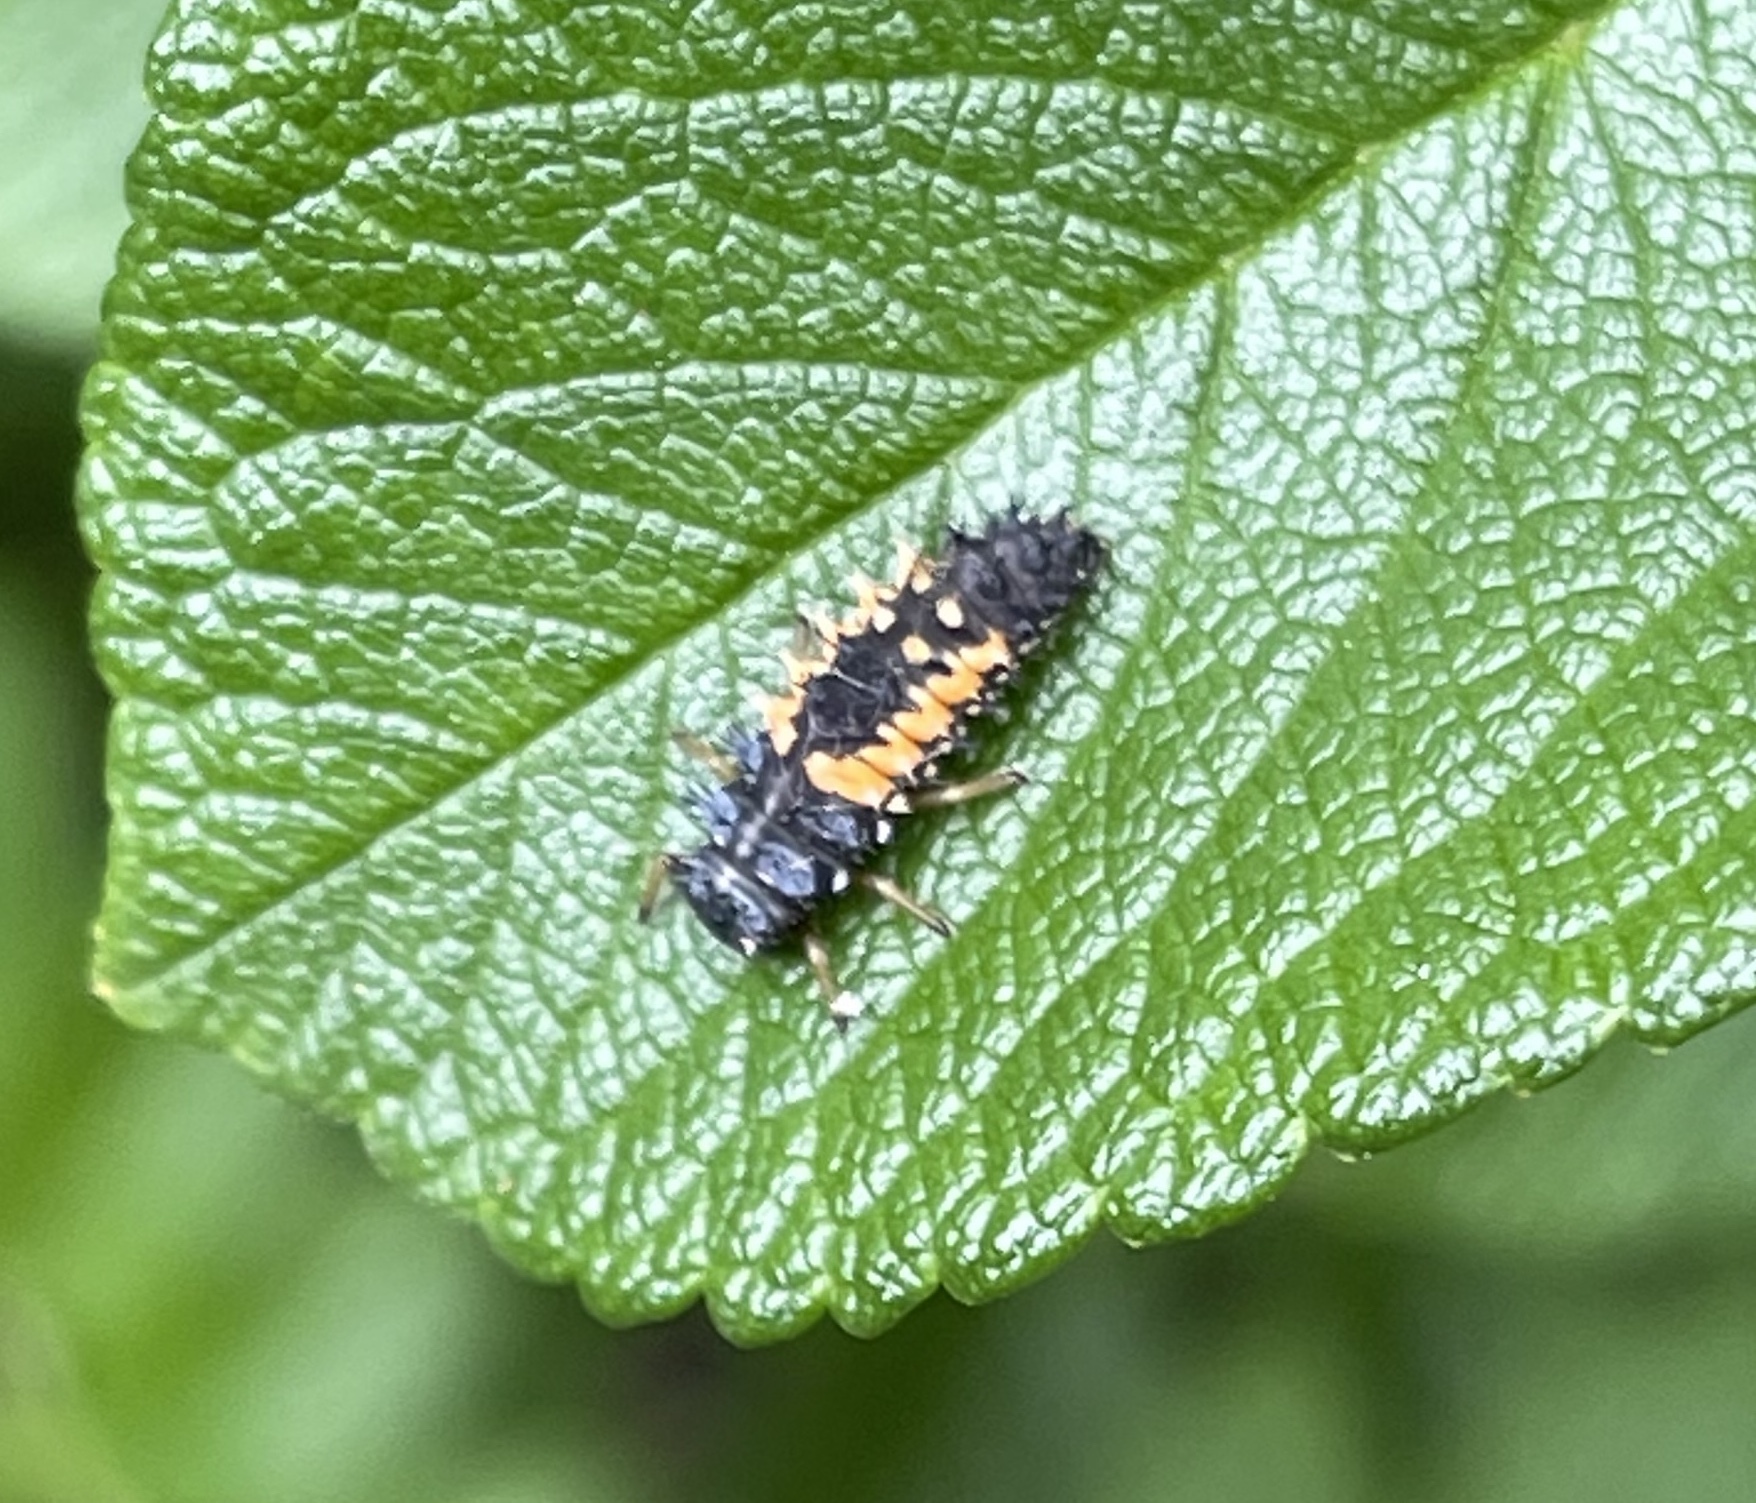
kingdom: Animalia
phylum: Arthropoda
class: Insecta
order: Coleoptera
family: Coccinellidae
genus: Harmonia
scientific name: Harmonia axyridis
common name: Harlequin ladybird
